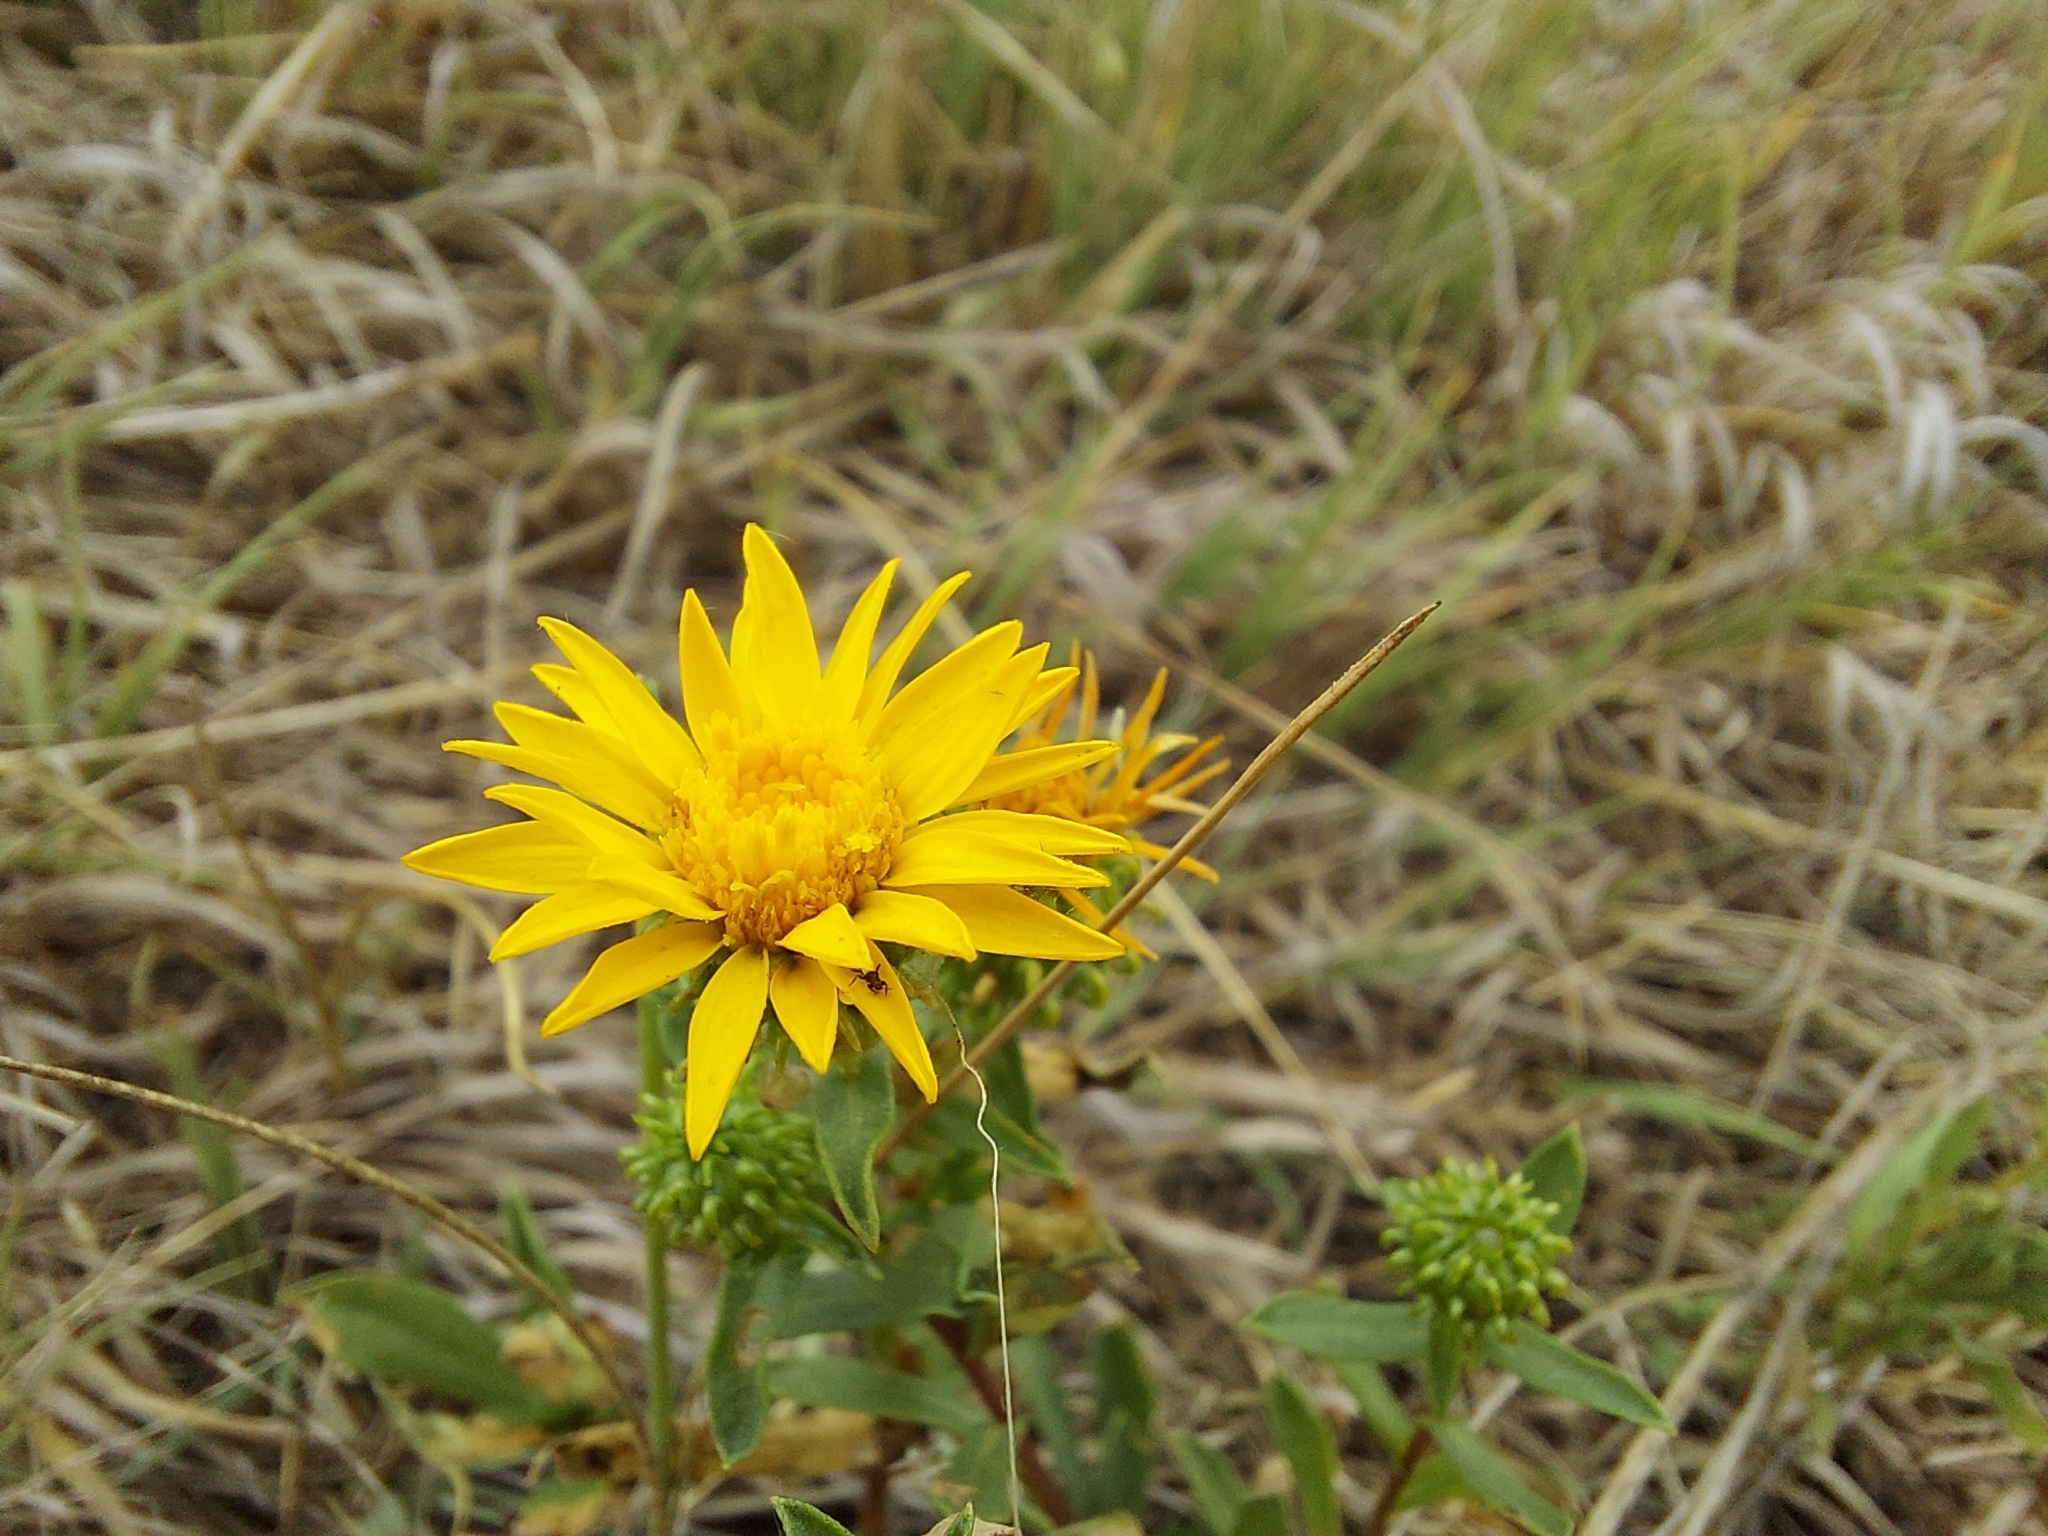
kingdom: Plantae
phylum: Tracheophyta
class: Magnoliopsida
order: Asterales
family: Asteraceae
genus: Grindelia
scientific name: Grindelia squarrosa
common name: Curly-cup gumweed
